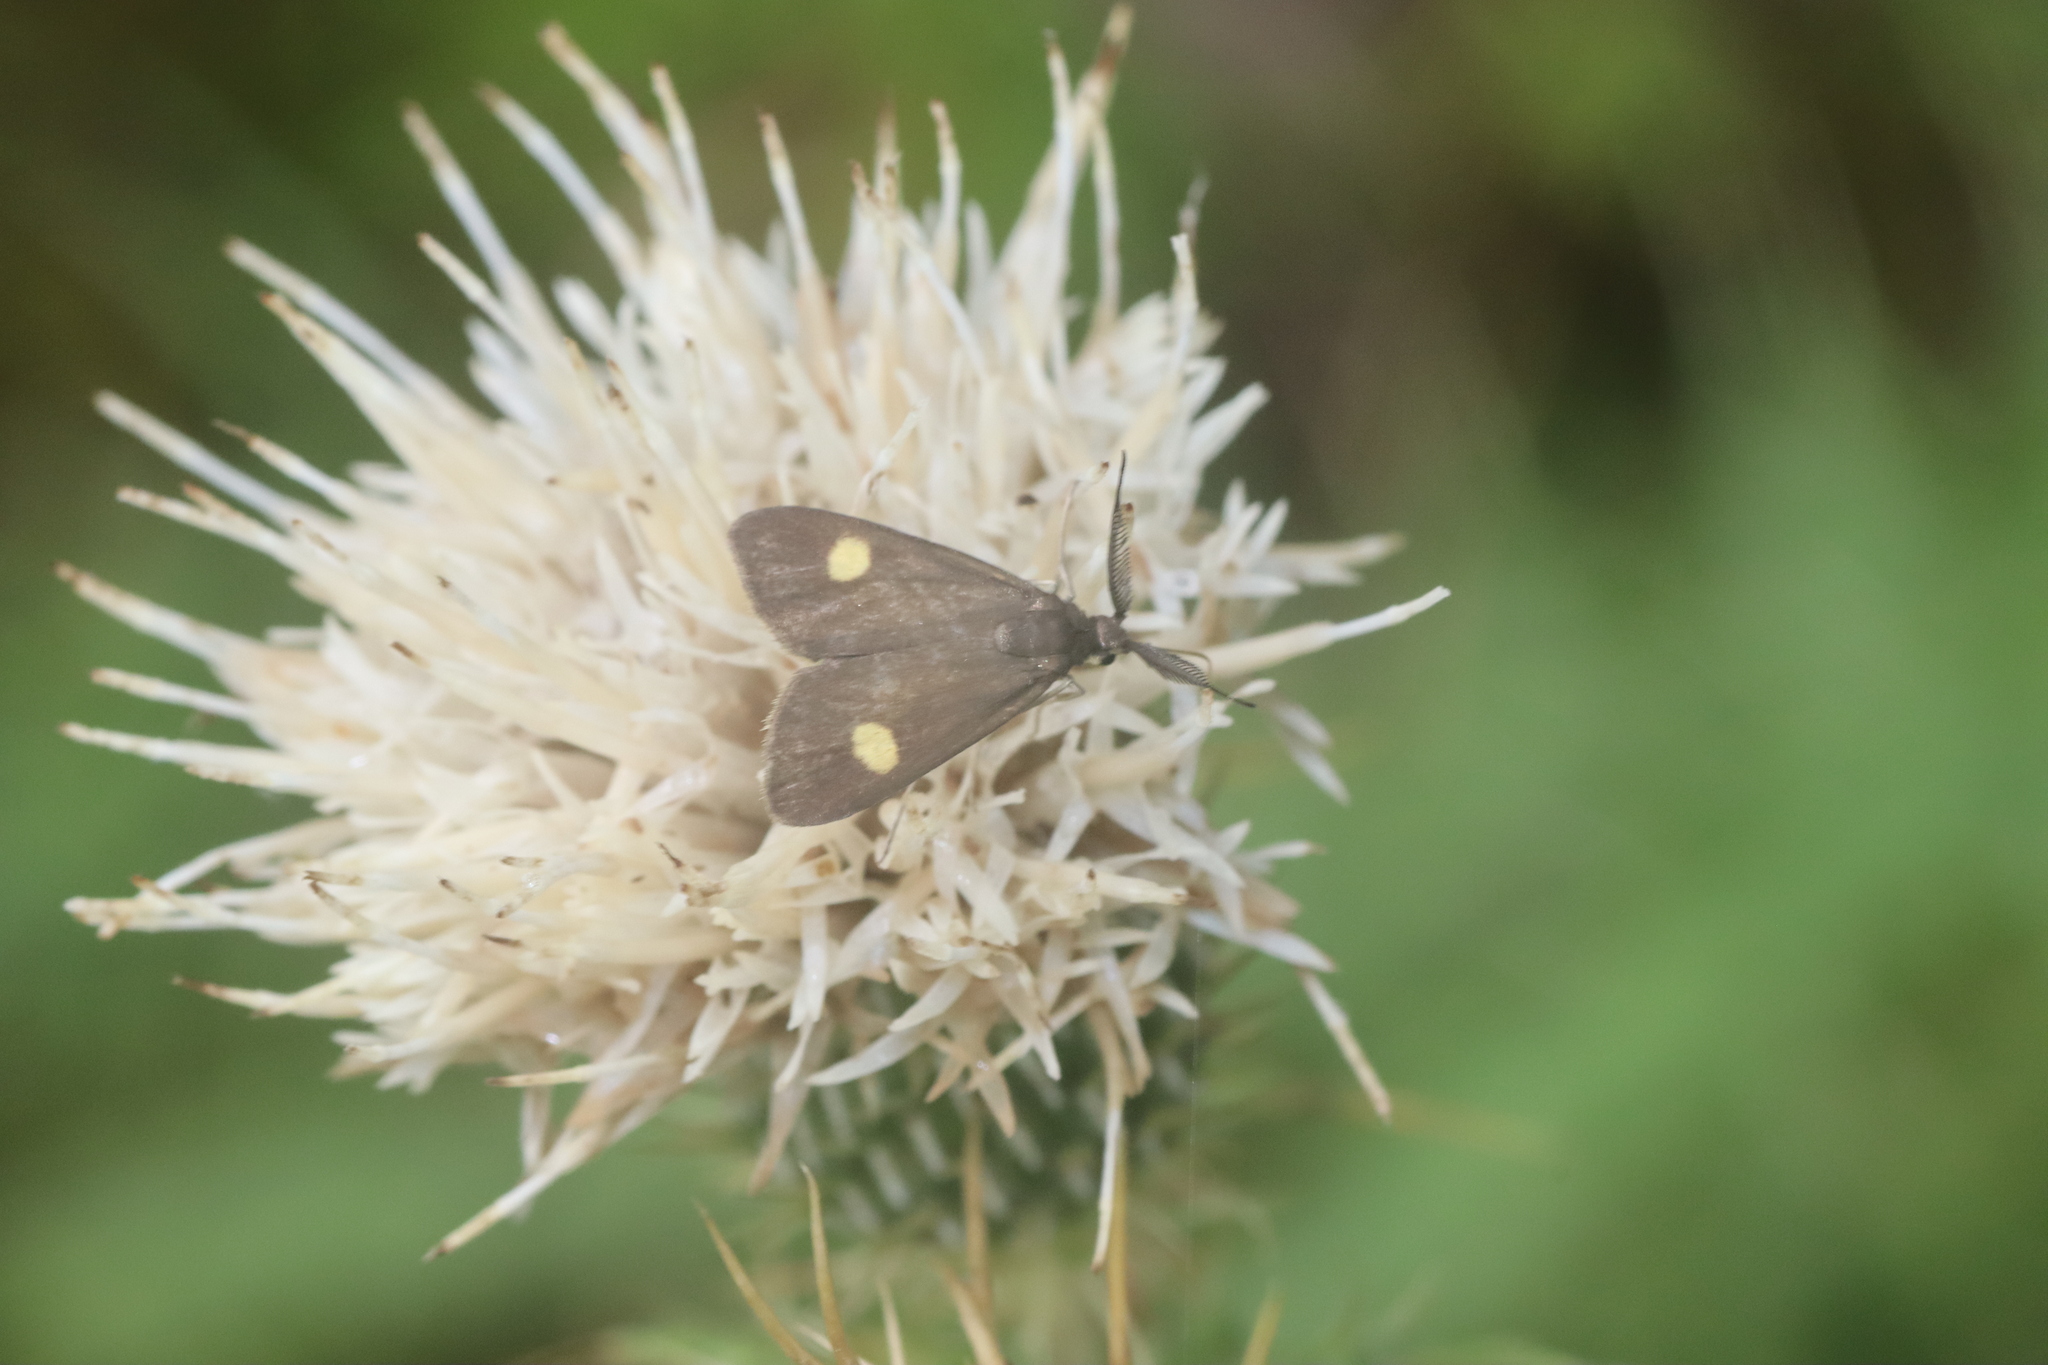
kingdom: Animalia
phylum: Arthropoda
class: Insecta
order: Lepidoptera
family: Zygaenidae
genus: Artona
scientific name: Artona quadrimaculata
